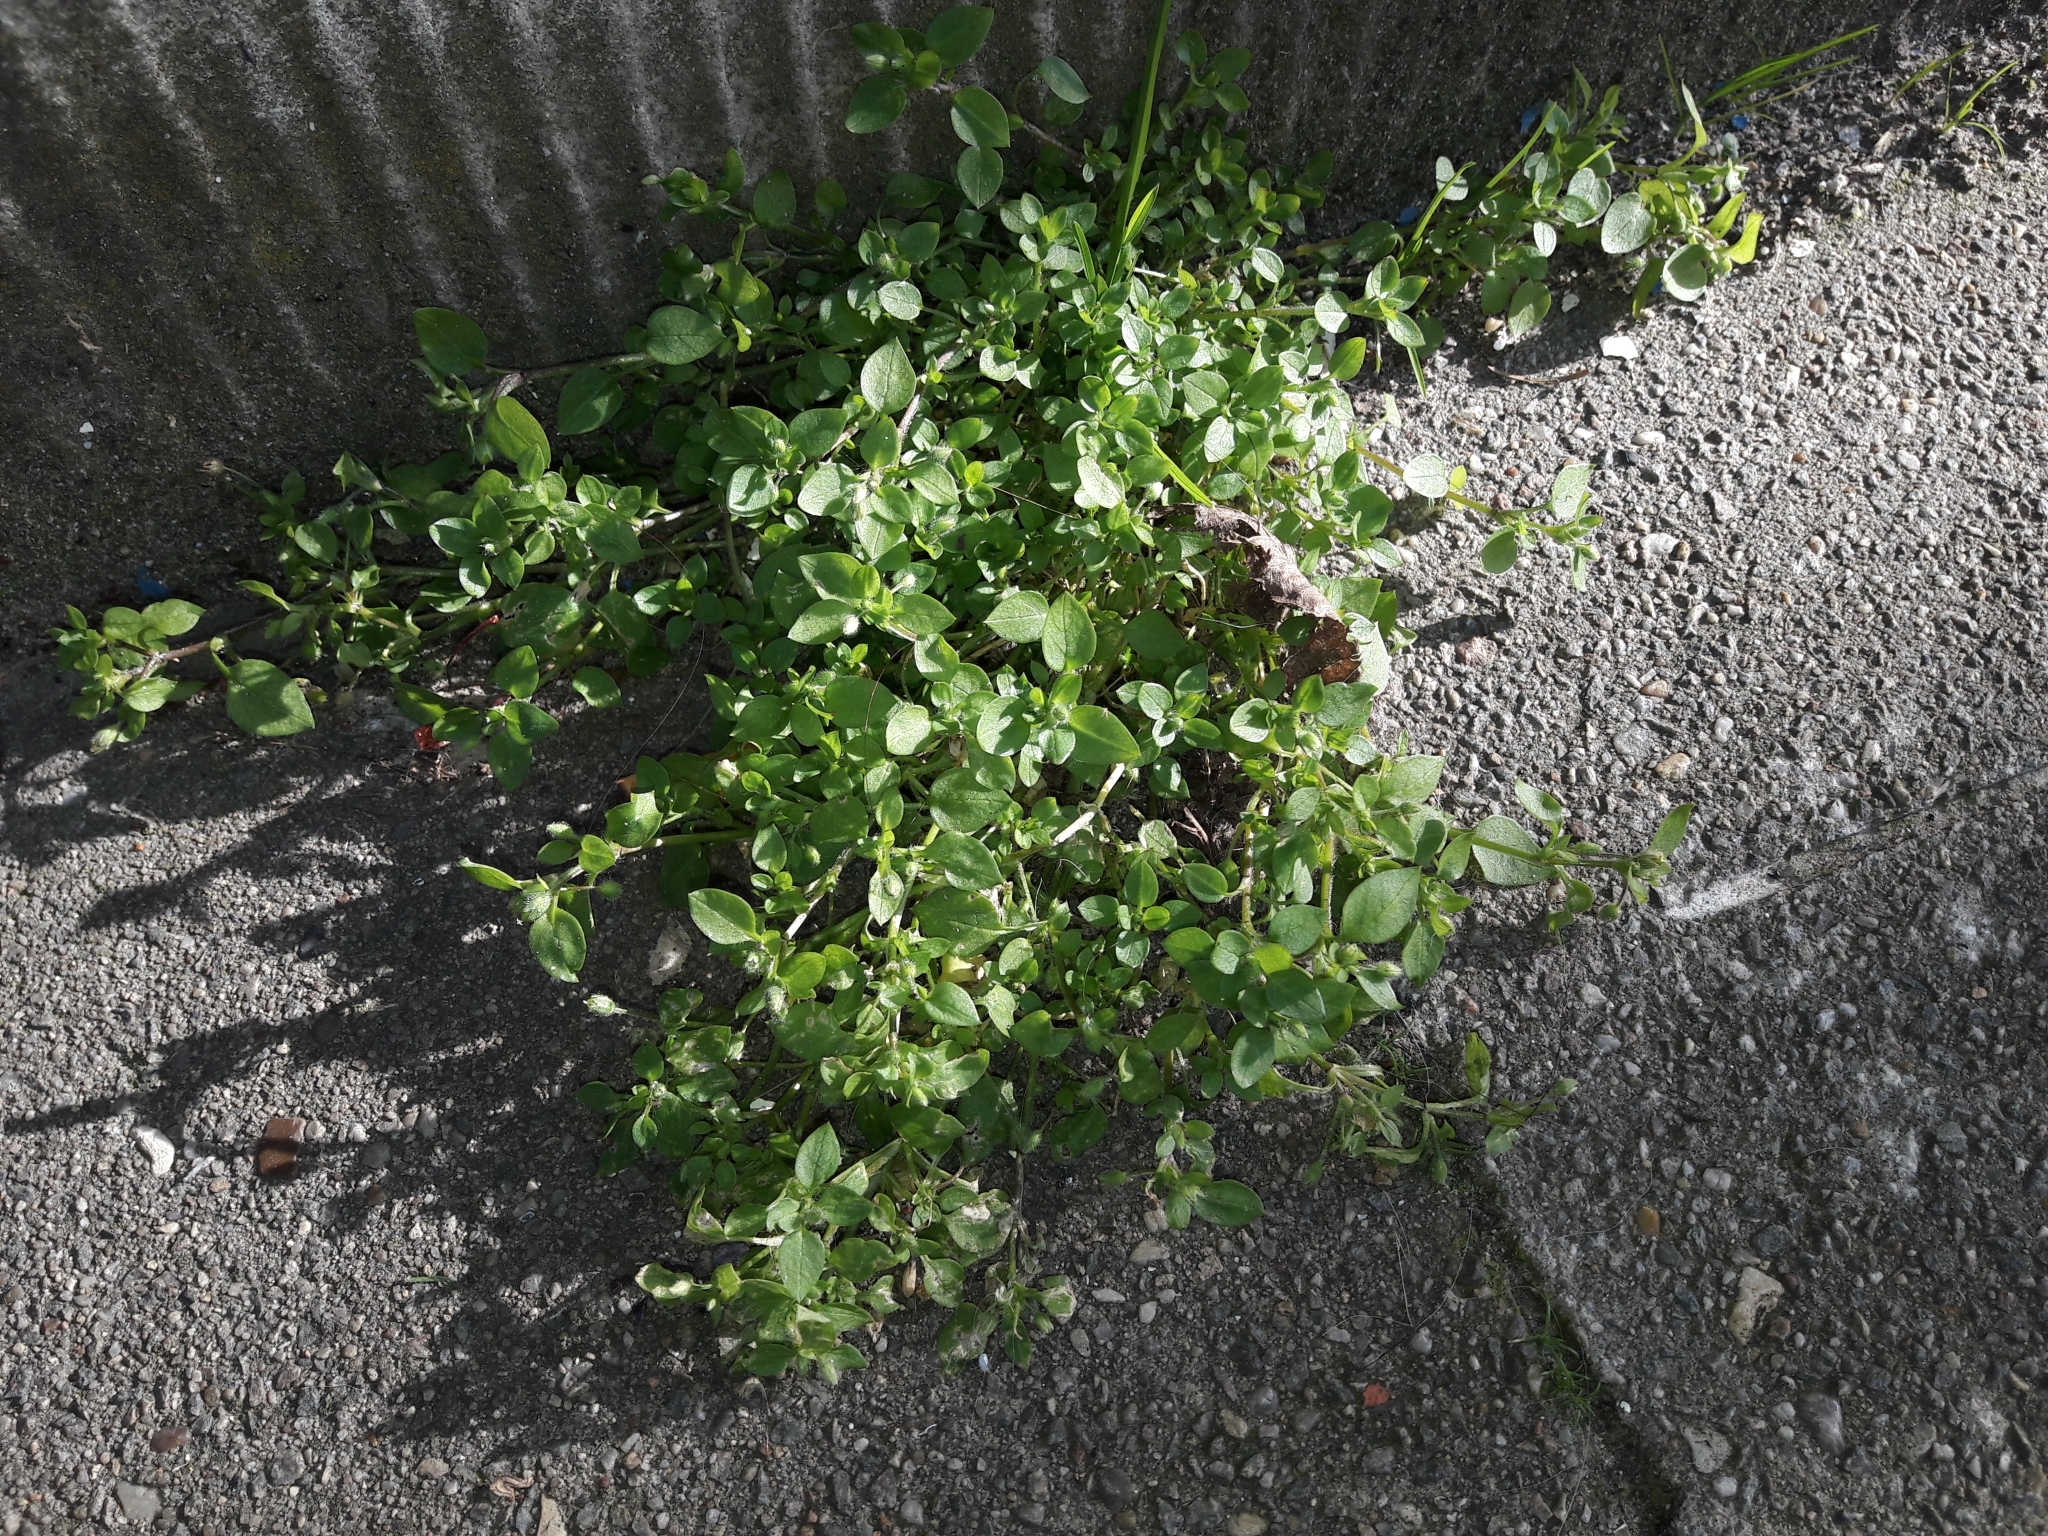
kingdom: Plantae
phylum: Tracheophyta
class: Magnoliopsida
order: Caryophyllales
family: Caryophyllaceae
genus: Stellaria
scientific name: Stellaria media
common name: Common chickweed
